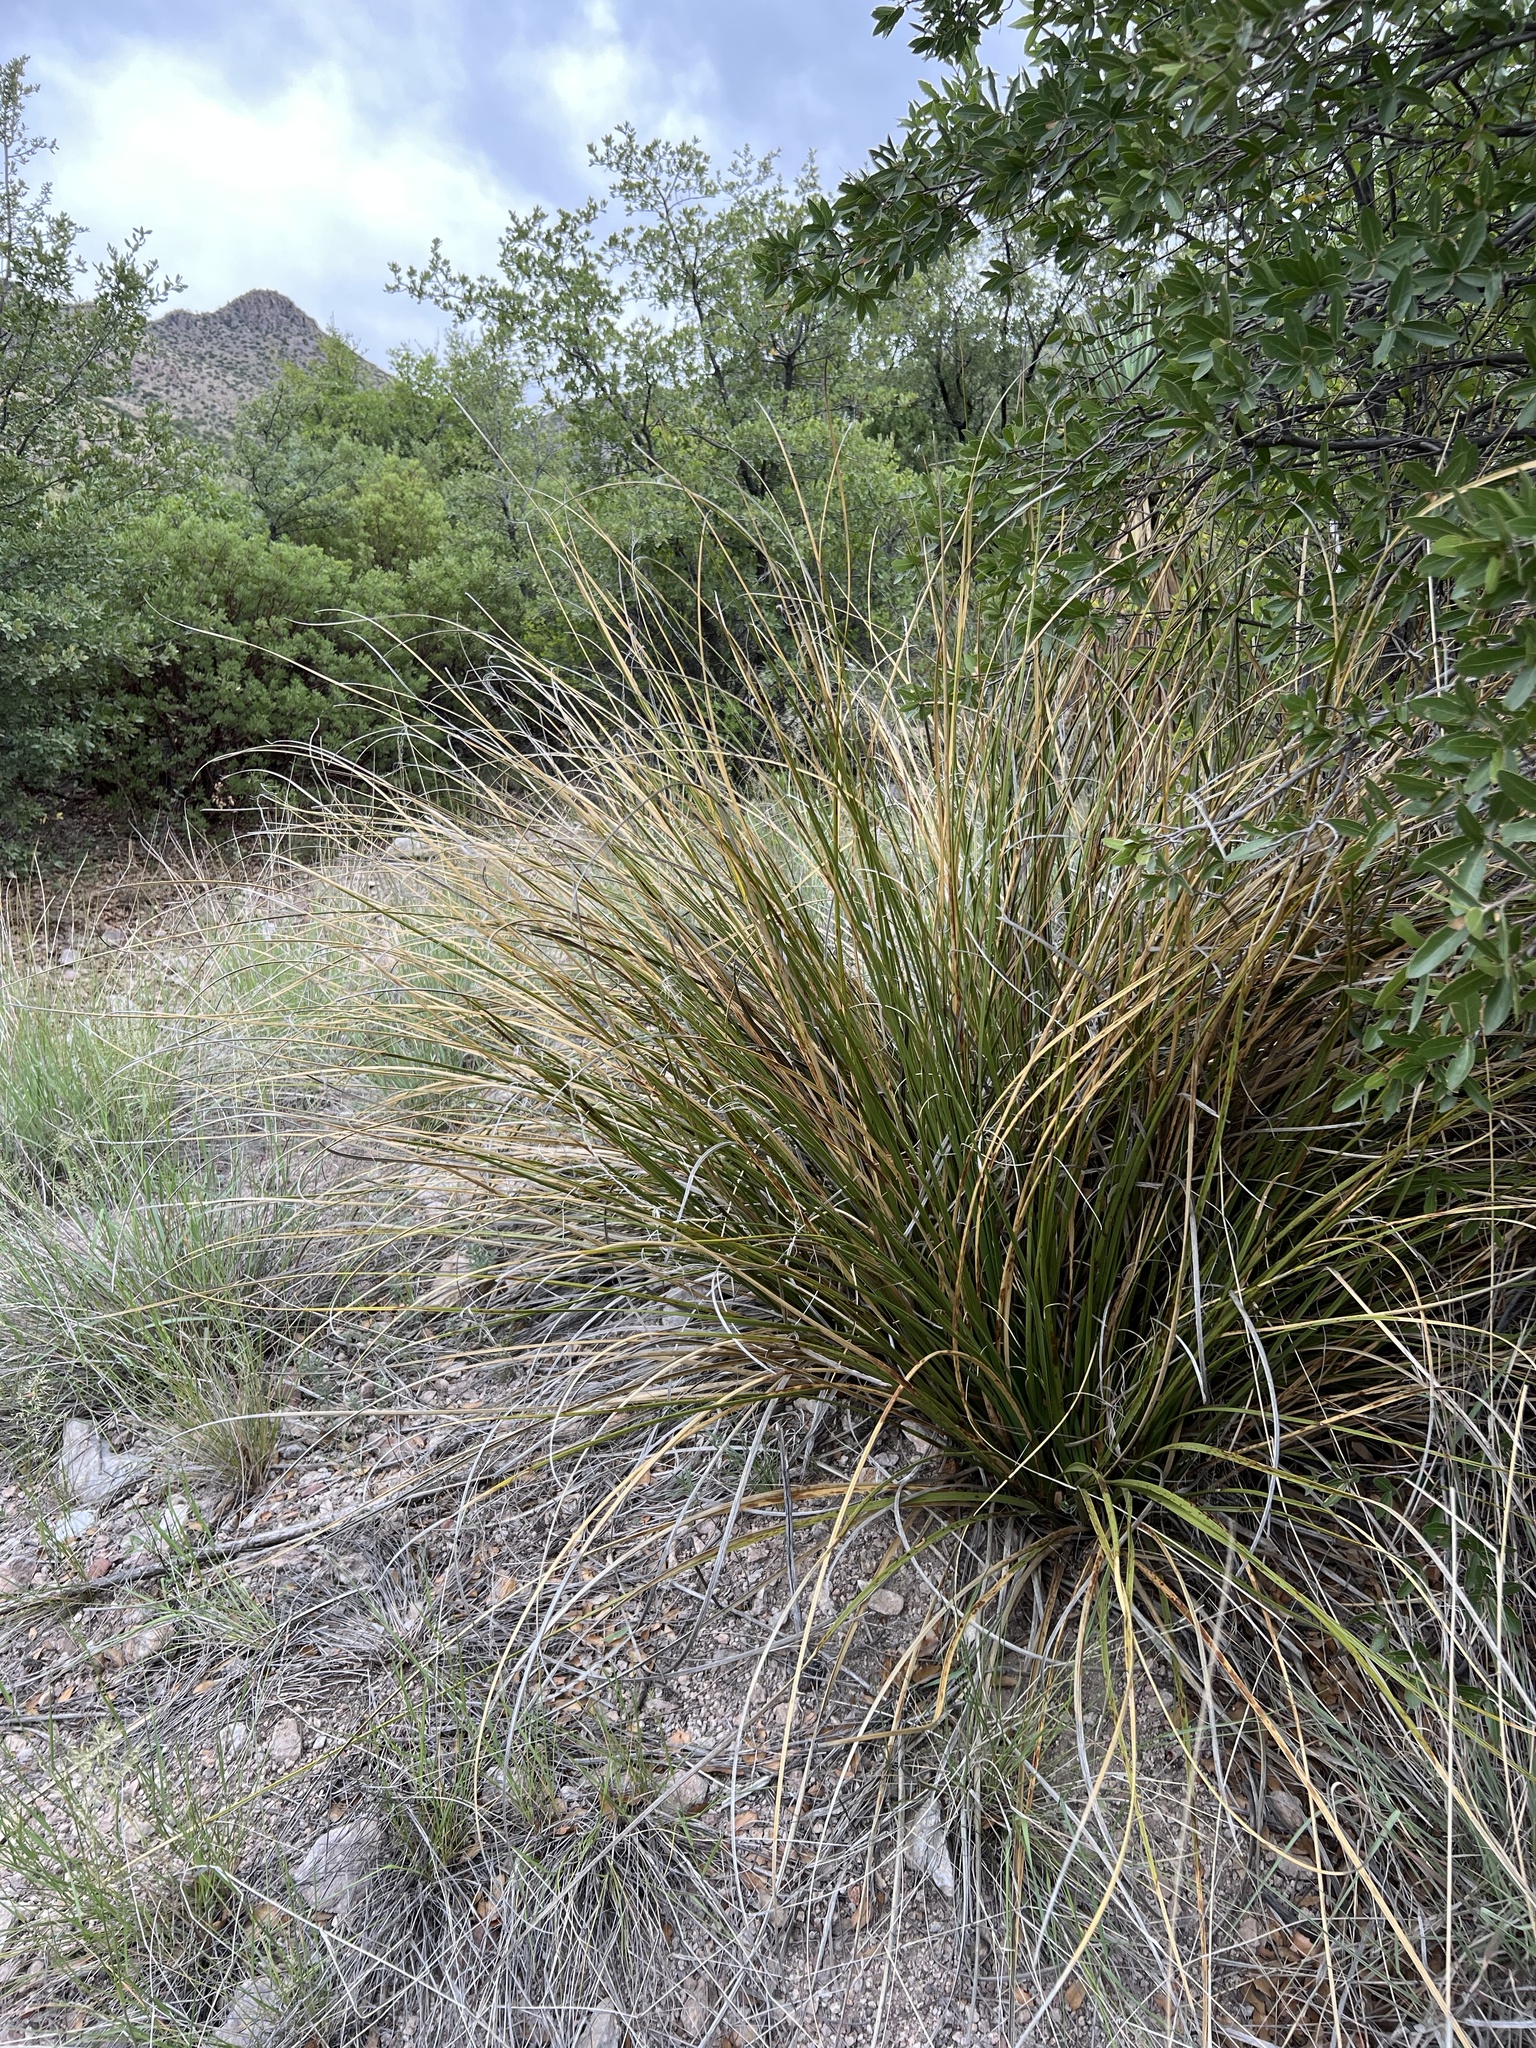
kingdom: Plantae
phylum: Tracheophyta
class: Liliopsida
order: Asparagales
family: Asparagaceae
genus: Nolina
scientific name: Nolina microcarpa
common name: Bear-grass
